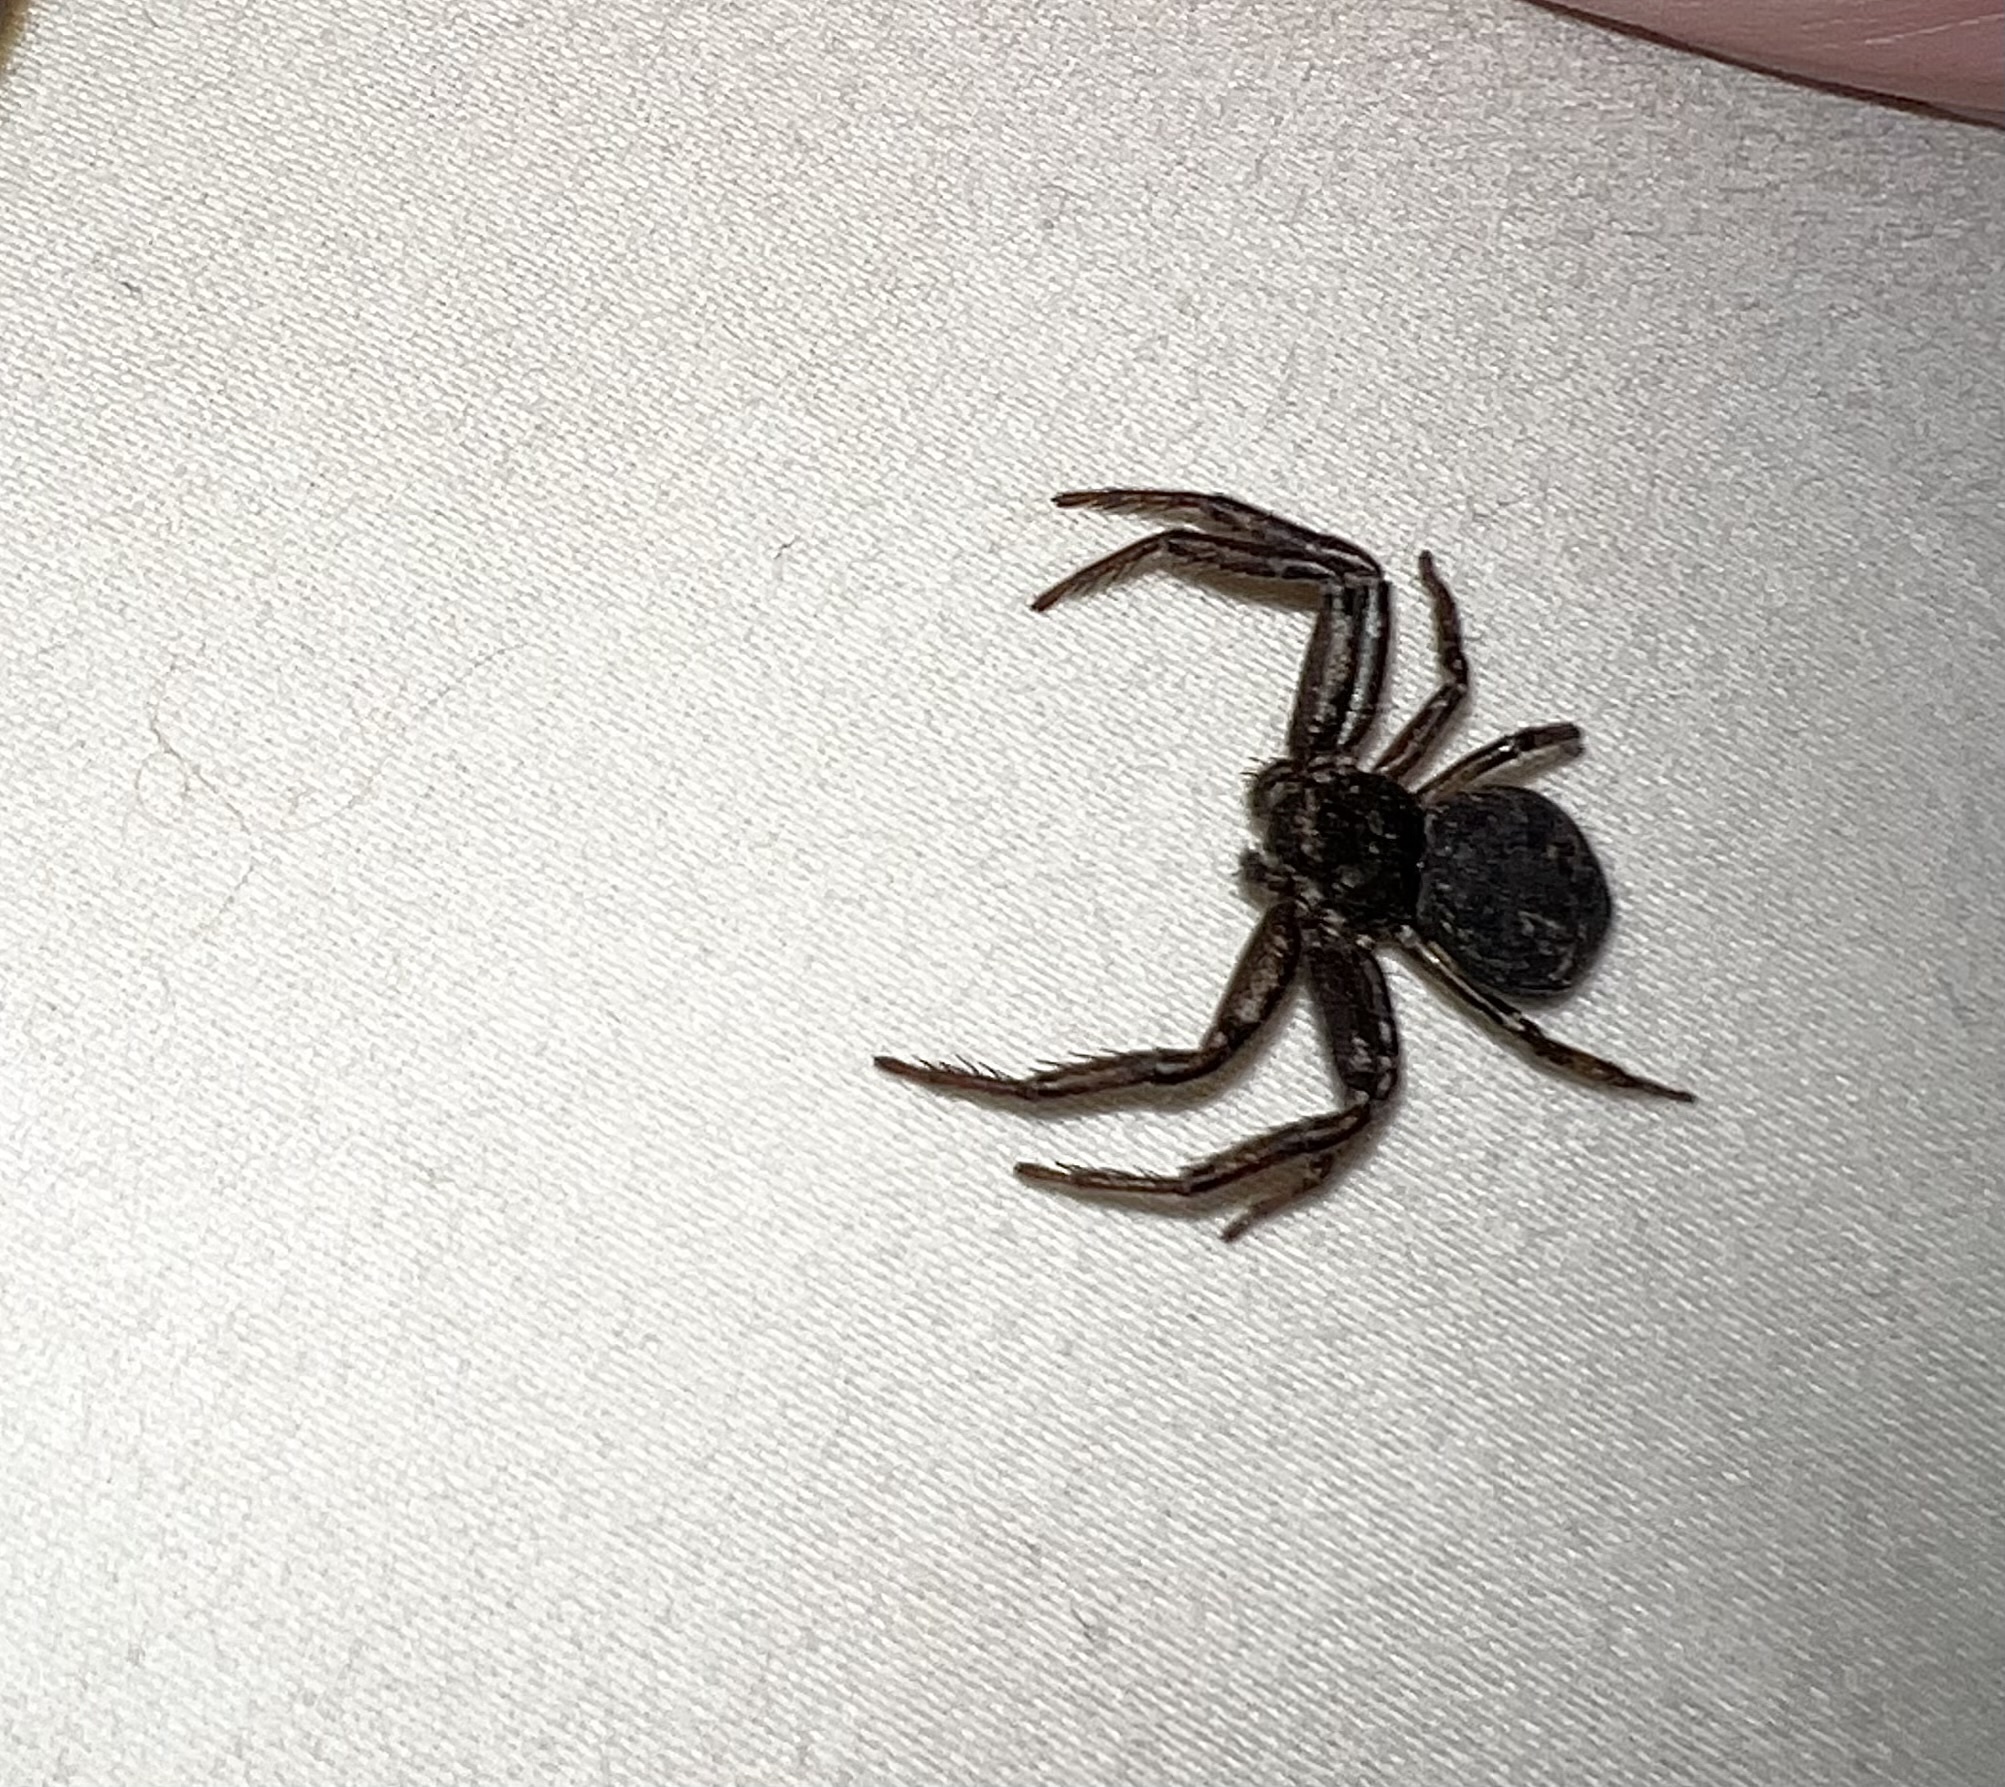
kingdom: Animalia
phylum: Arthropoda
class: Arachnida
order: Araneae
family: Thomisidae
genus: Bassaniana
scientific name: Bassaniana
